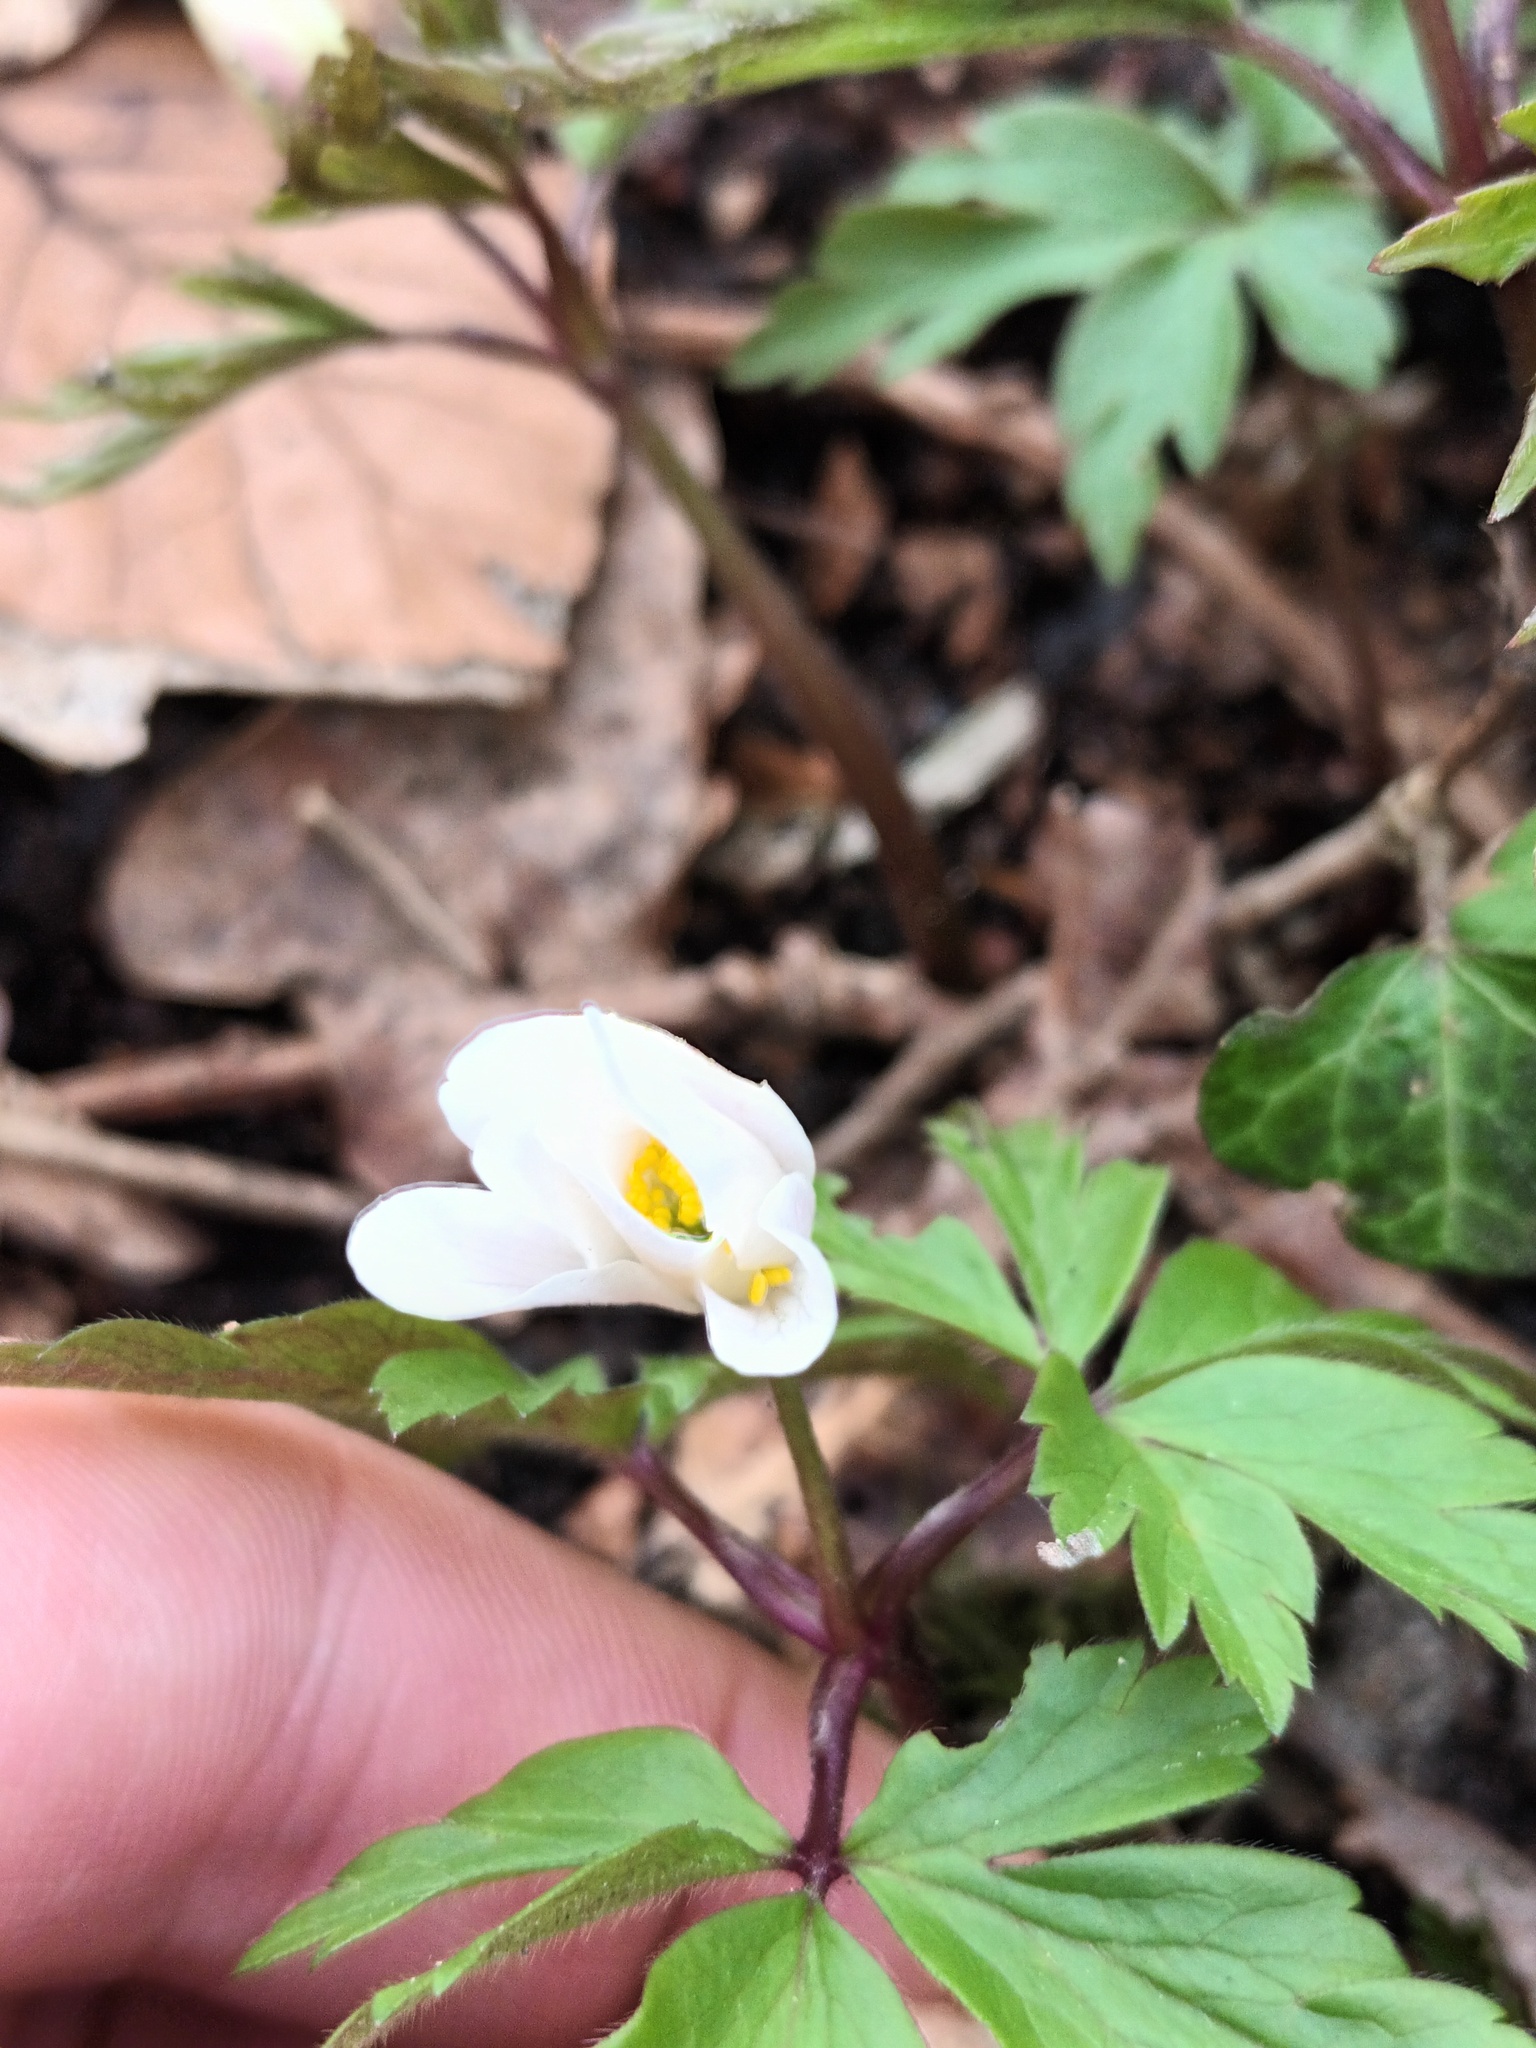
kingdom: Plantae
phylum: Tracheophyta
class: Magnoliopsida
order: Ranunculales
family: Ranunculaceae
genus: Anemone
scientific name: Anemone nemorosa
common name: Wood anemone
